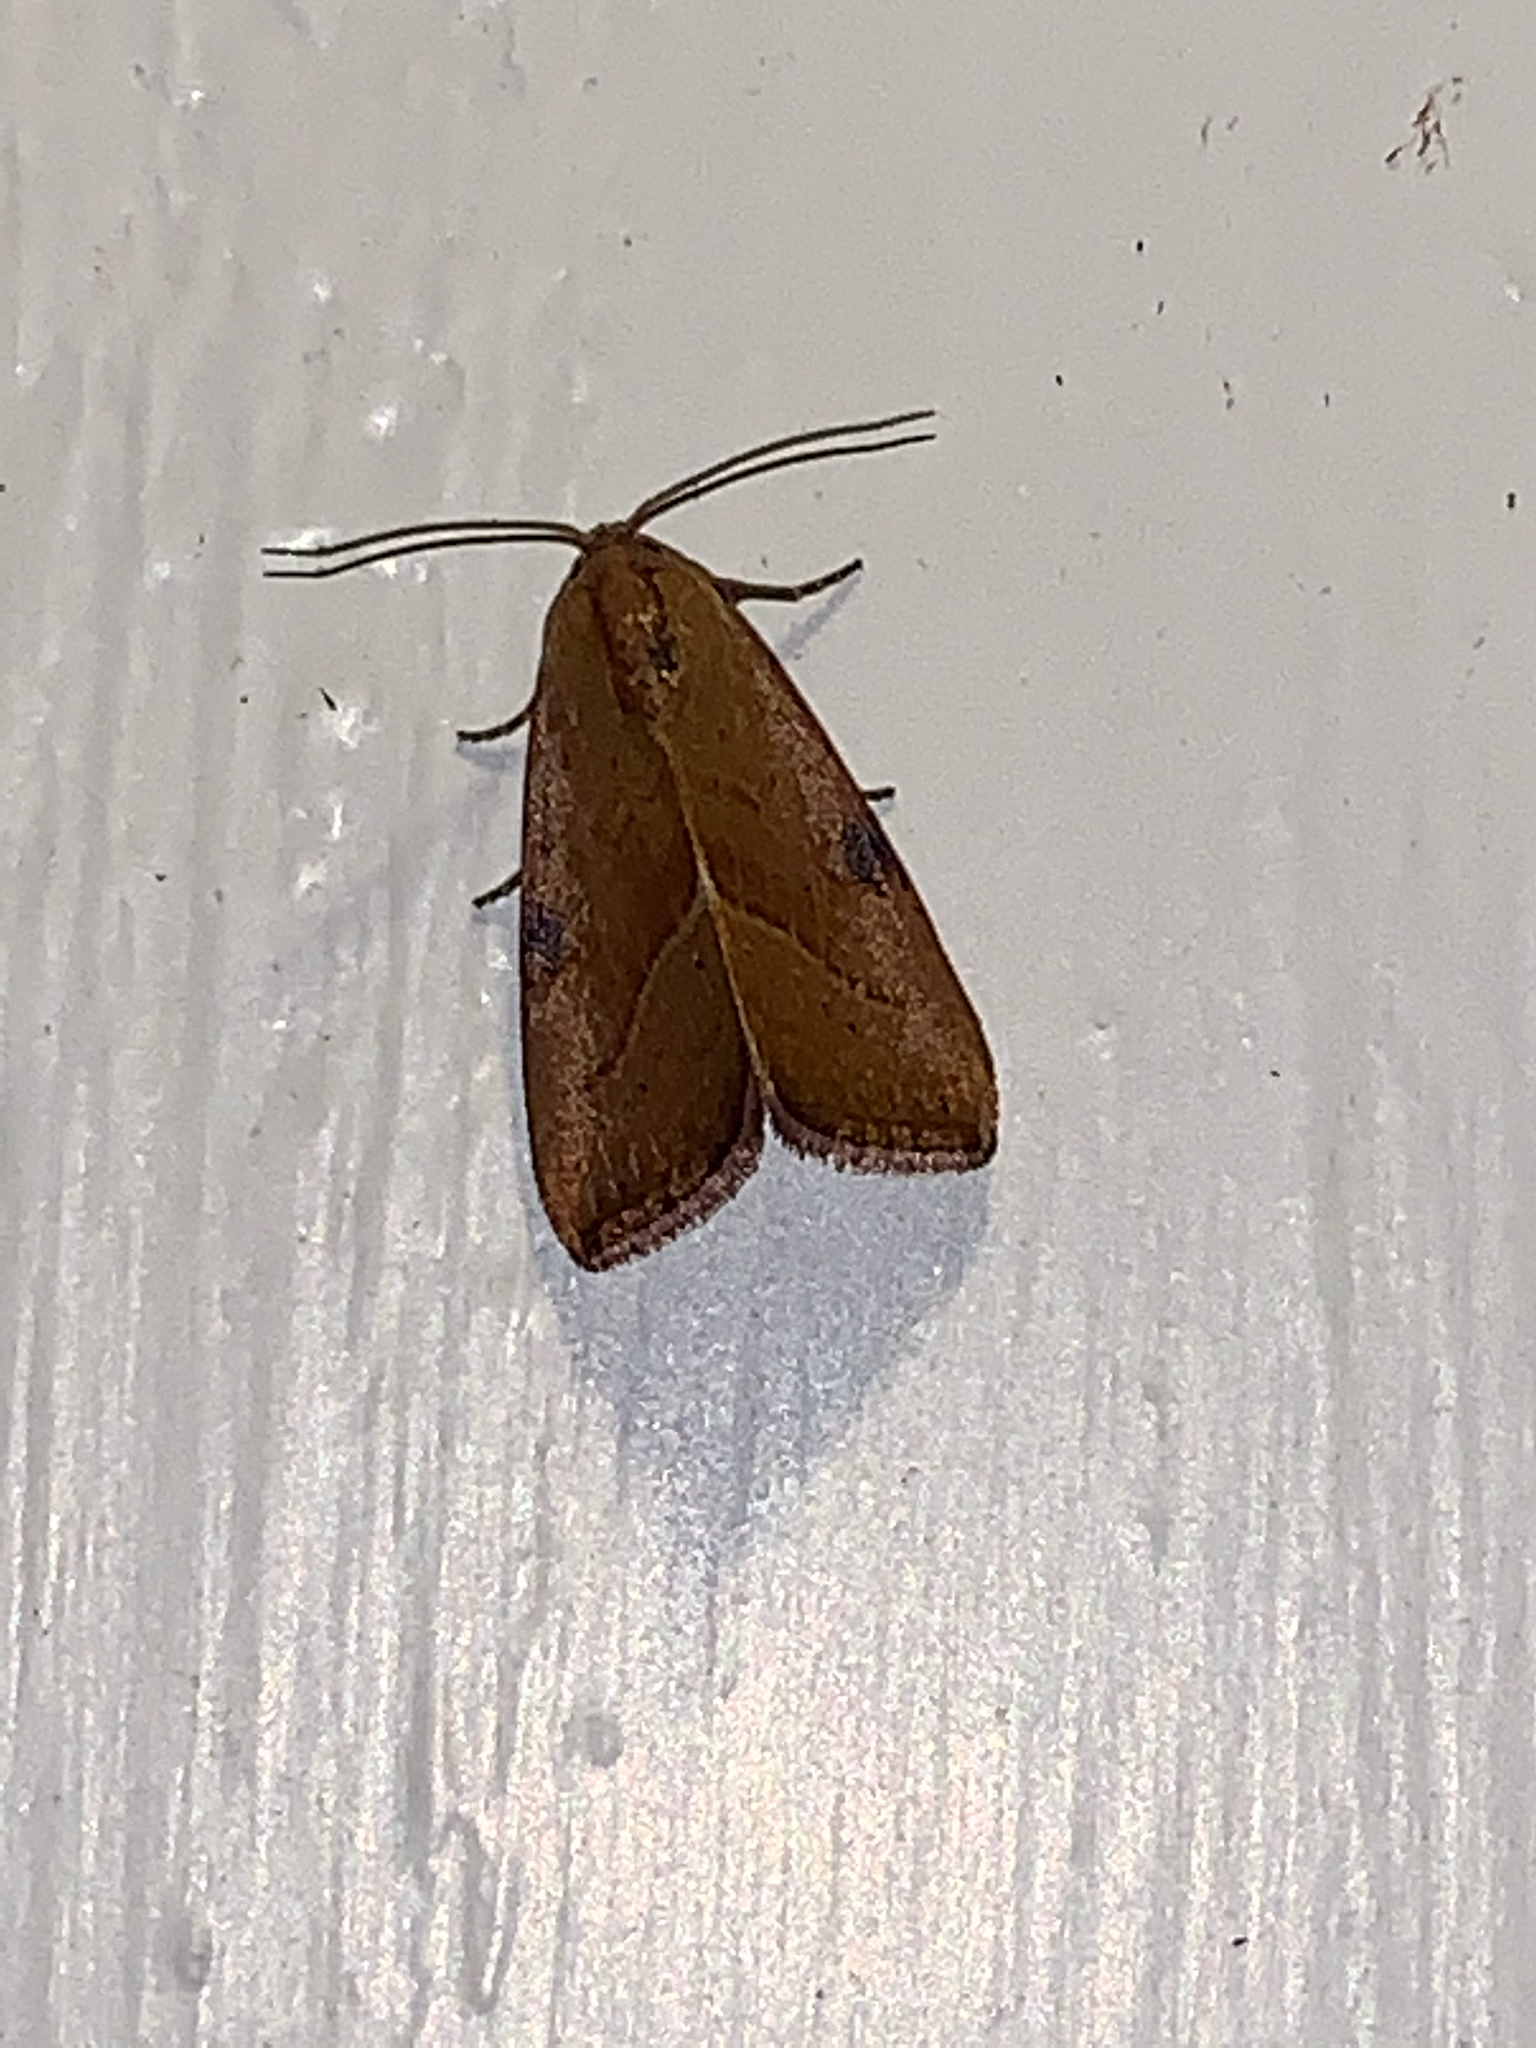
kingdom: Animalia
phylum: Arthropoda
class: Insecta
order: Lepidoptera
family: Noctuidae
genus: Galgula
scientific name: Galgula partita
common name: Wedgeling
